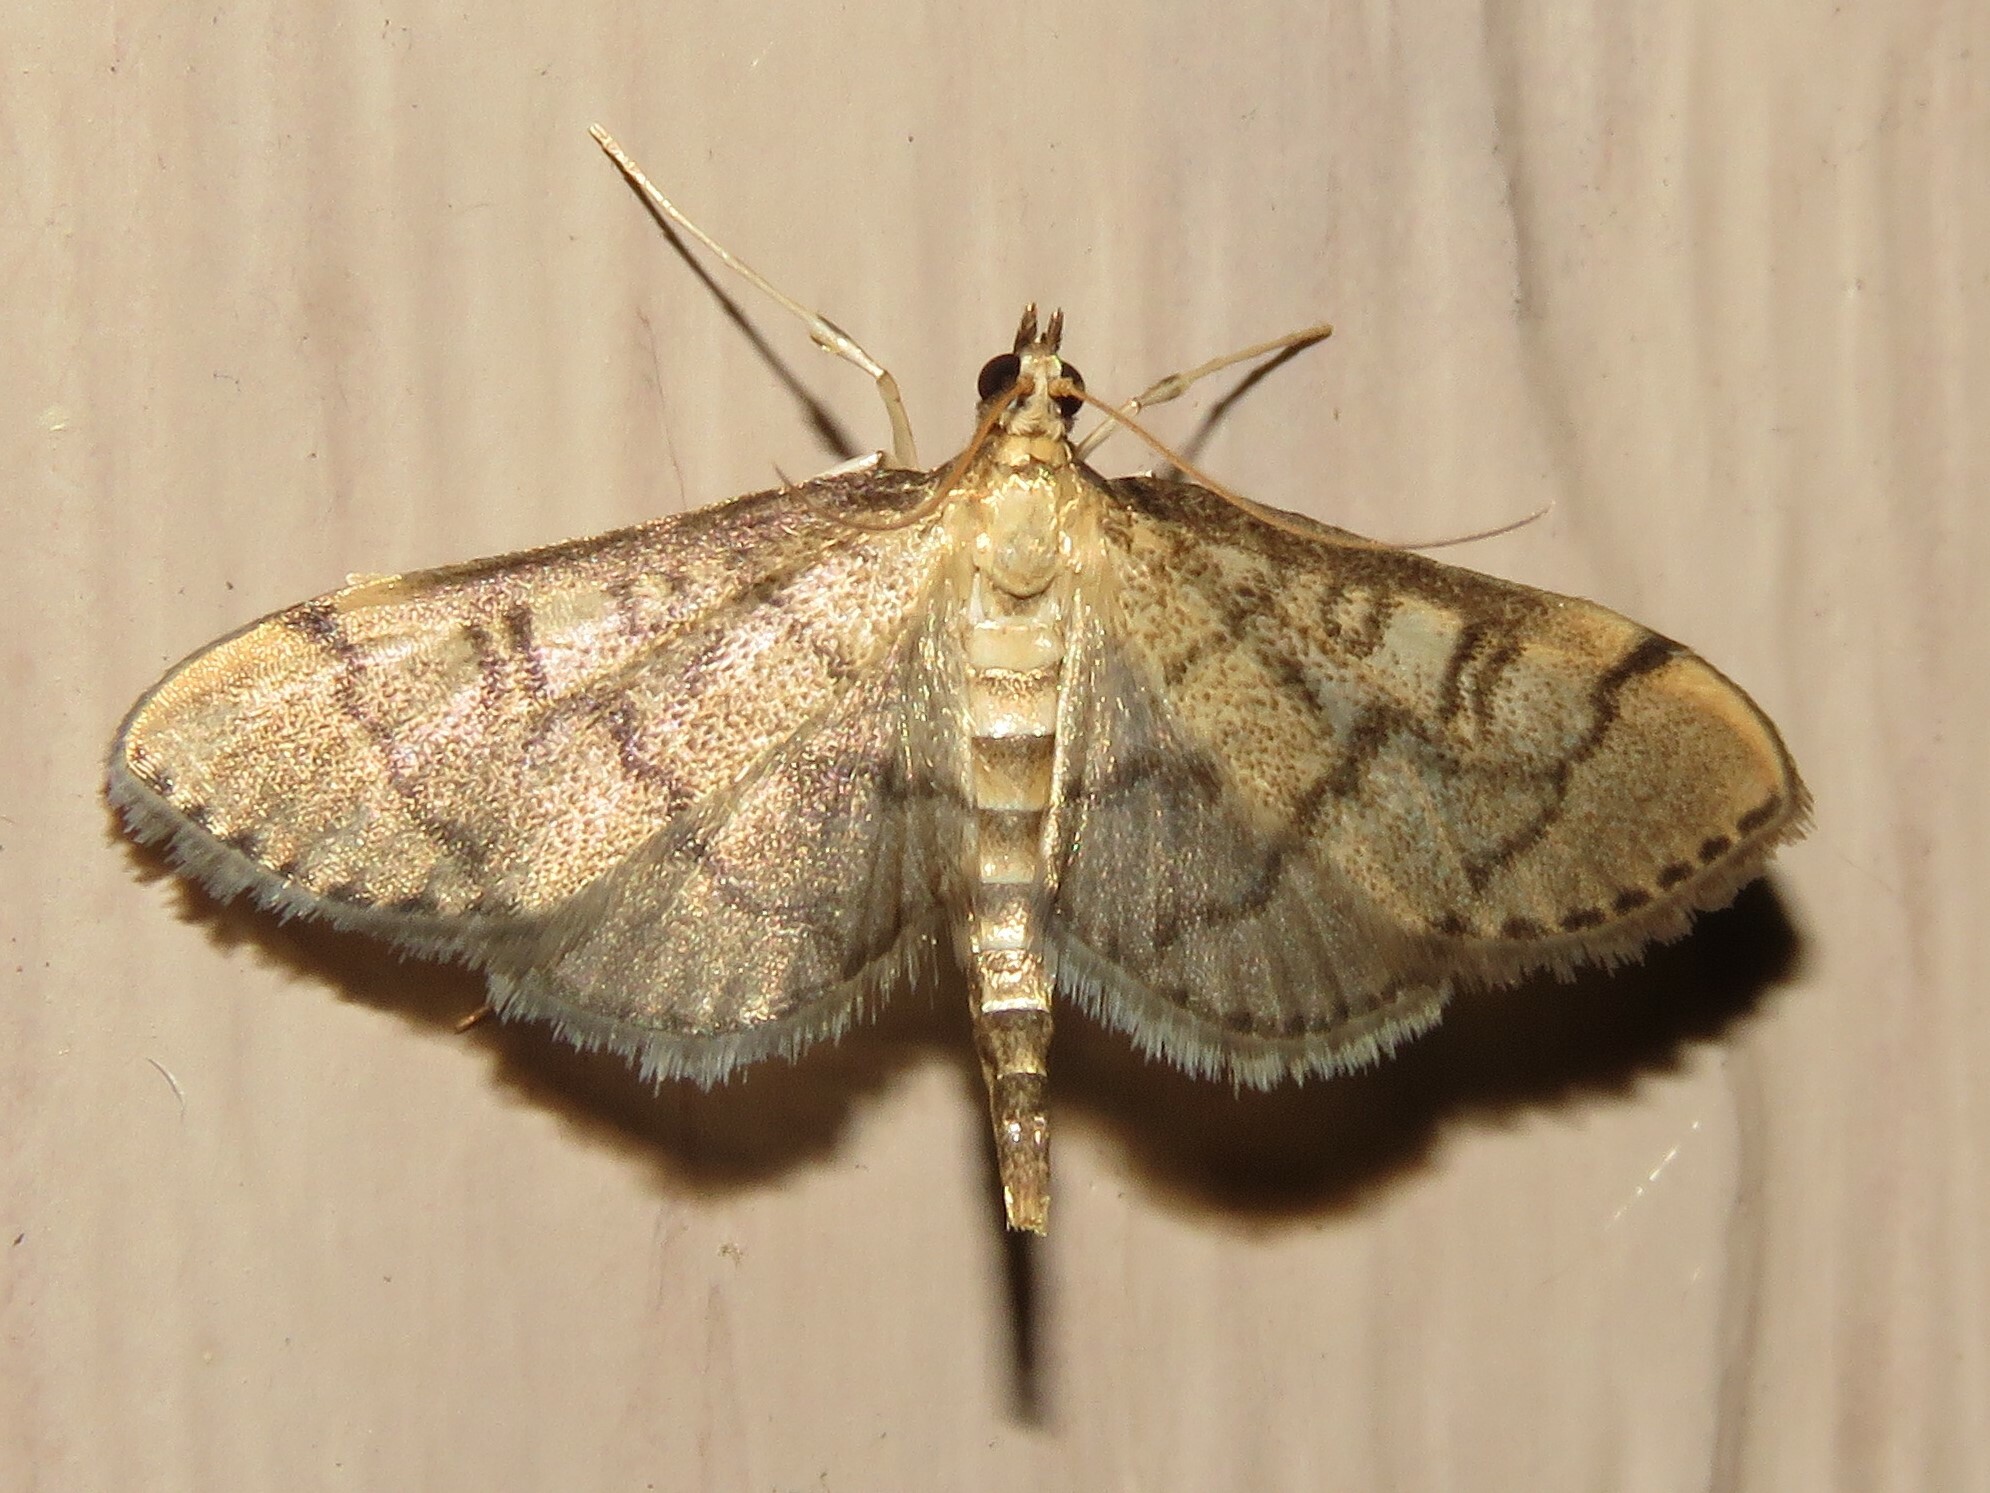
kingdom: Animalia
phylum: Arthropoda
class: Insecta
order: Lepidoptera
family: Crambidae
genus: Lamprosema
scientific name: Lamprosema Blepharomastix ranalis
